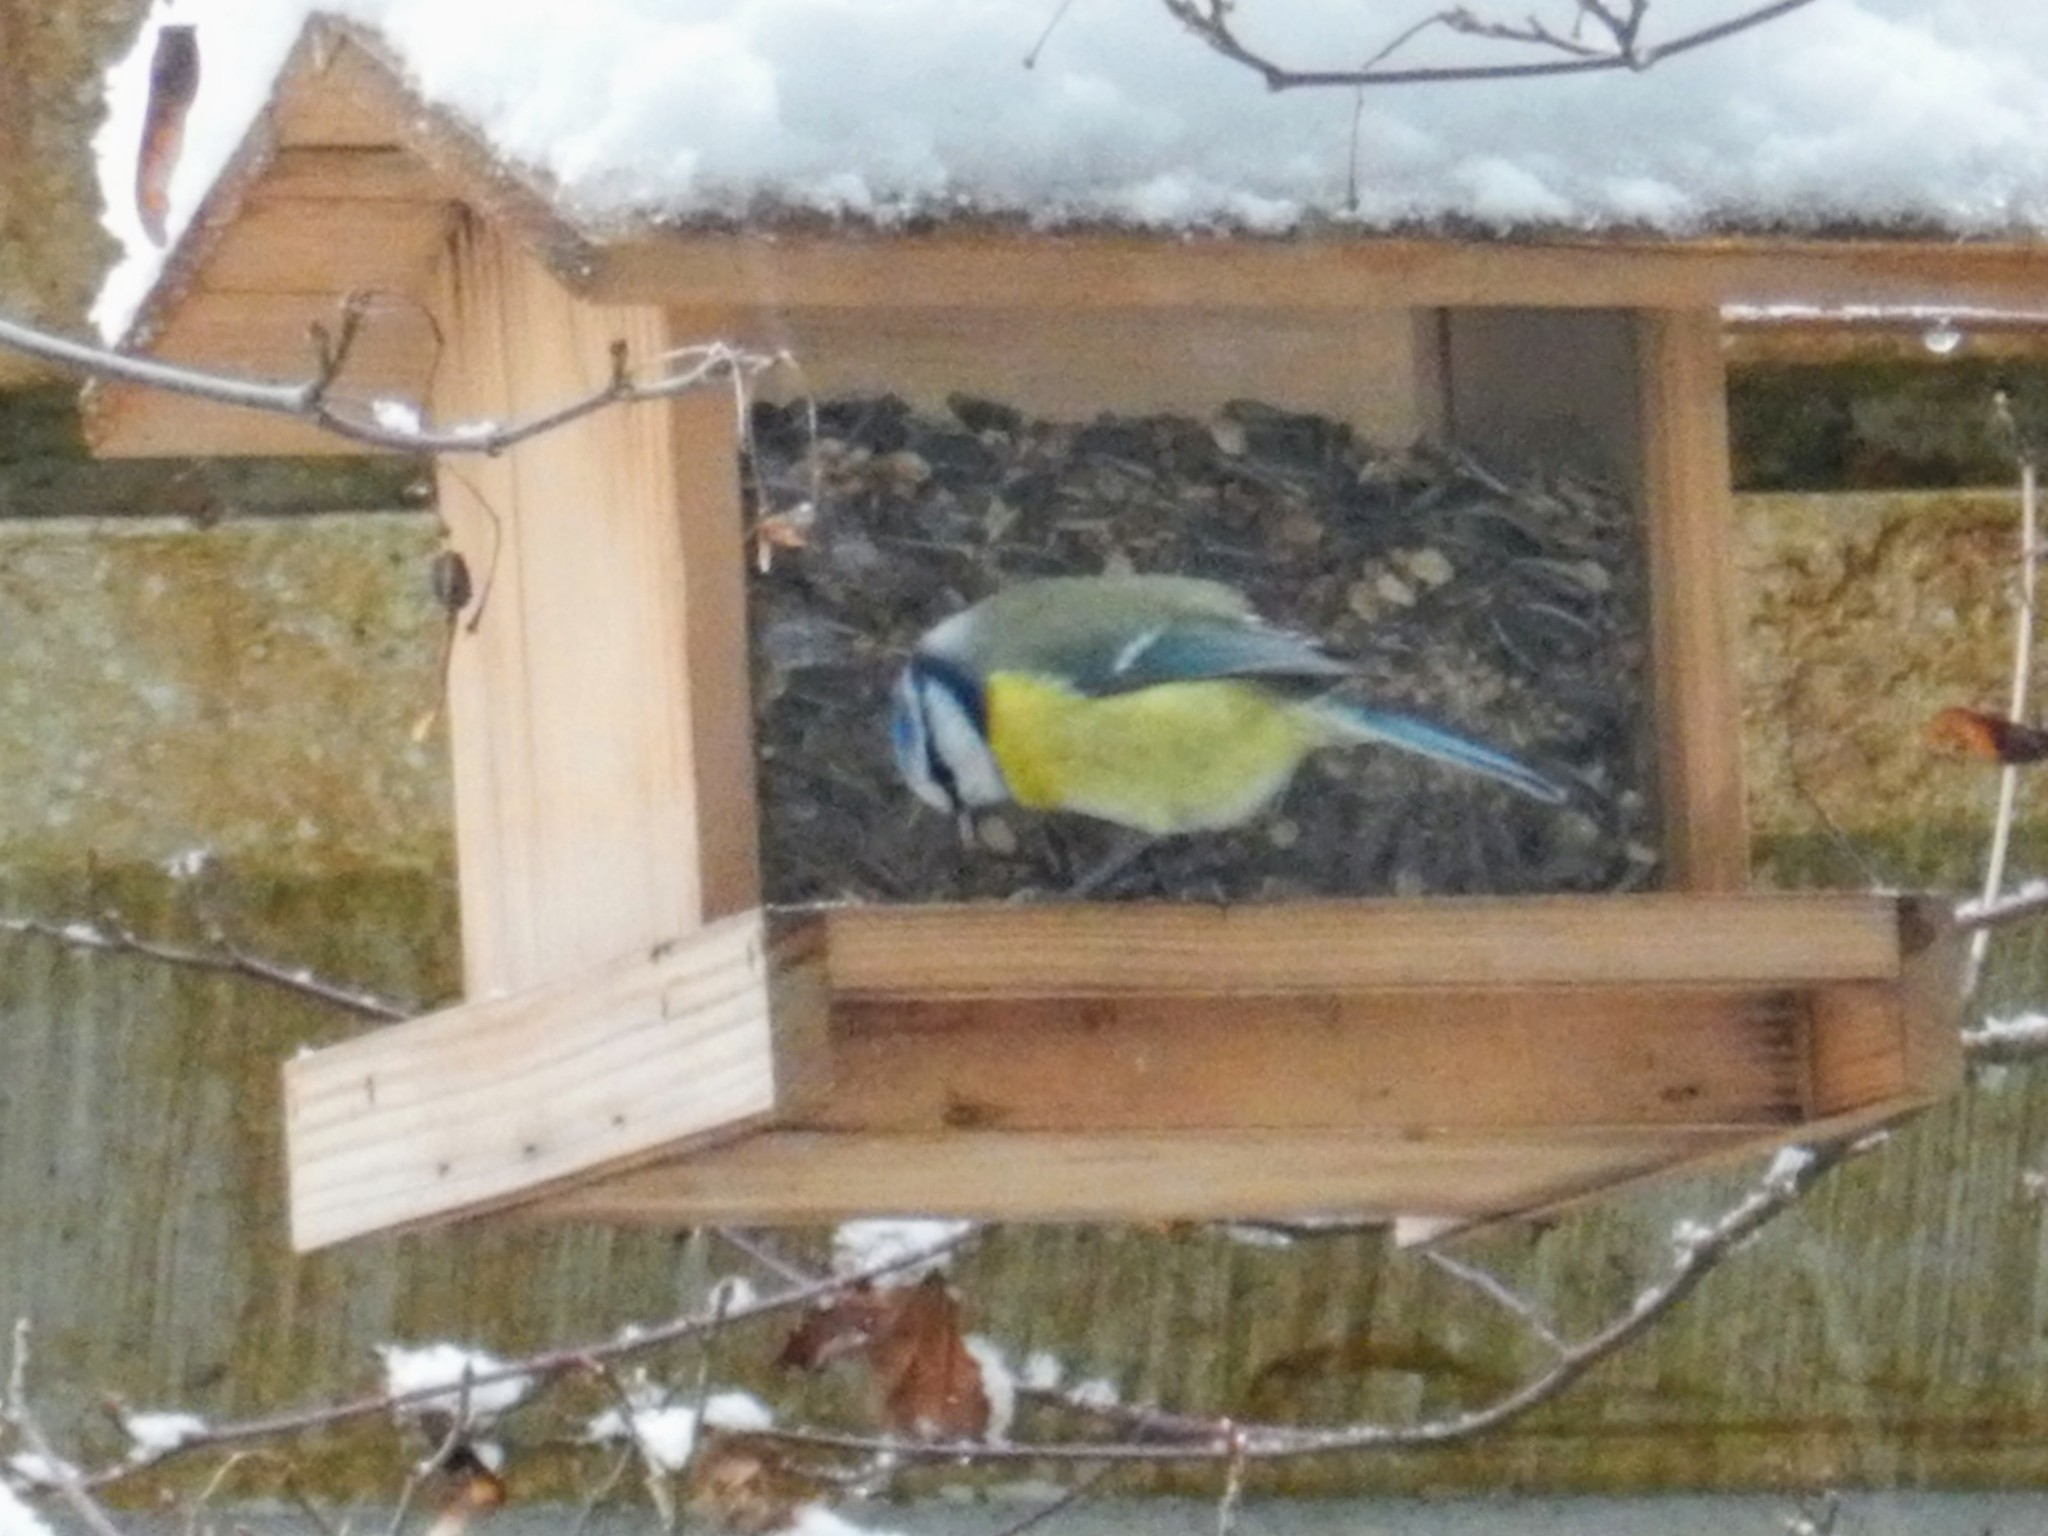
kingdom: Animalia
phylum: Chordata
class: Aves
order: Passeriformes
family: Paridae
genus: Cyanistes
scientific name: Cyanistes caeruleus
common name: Eurasian blue tit
